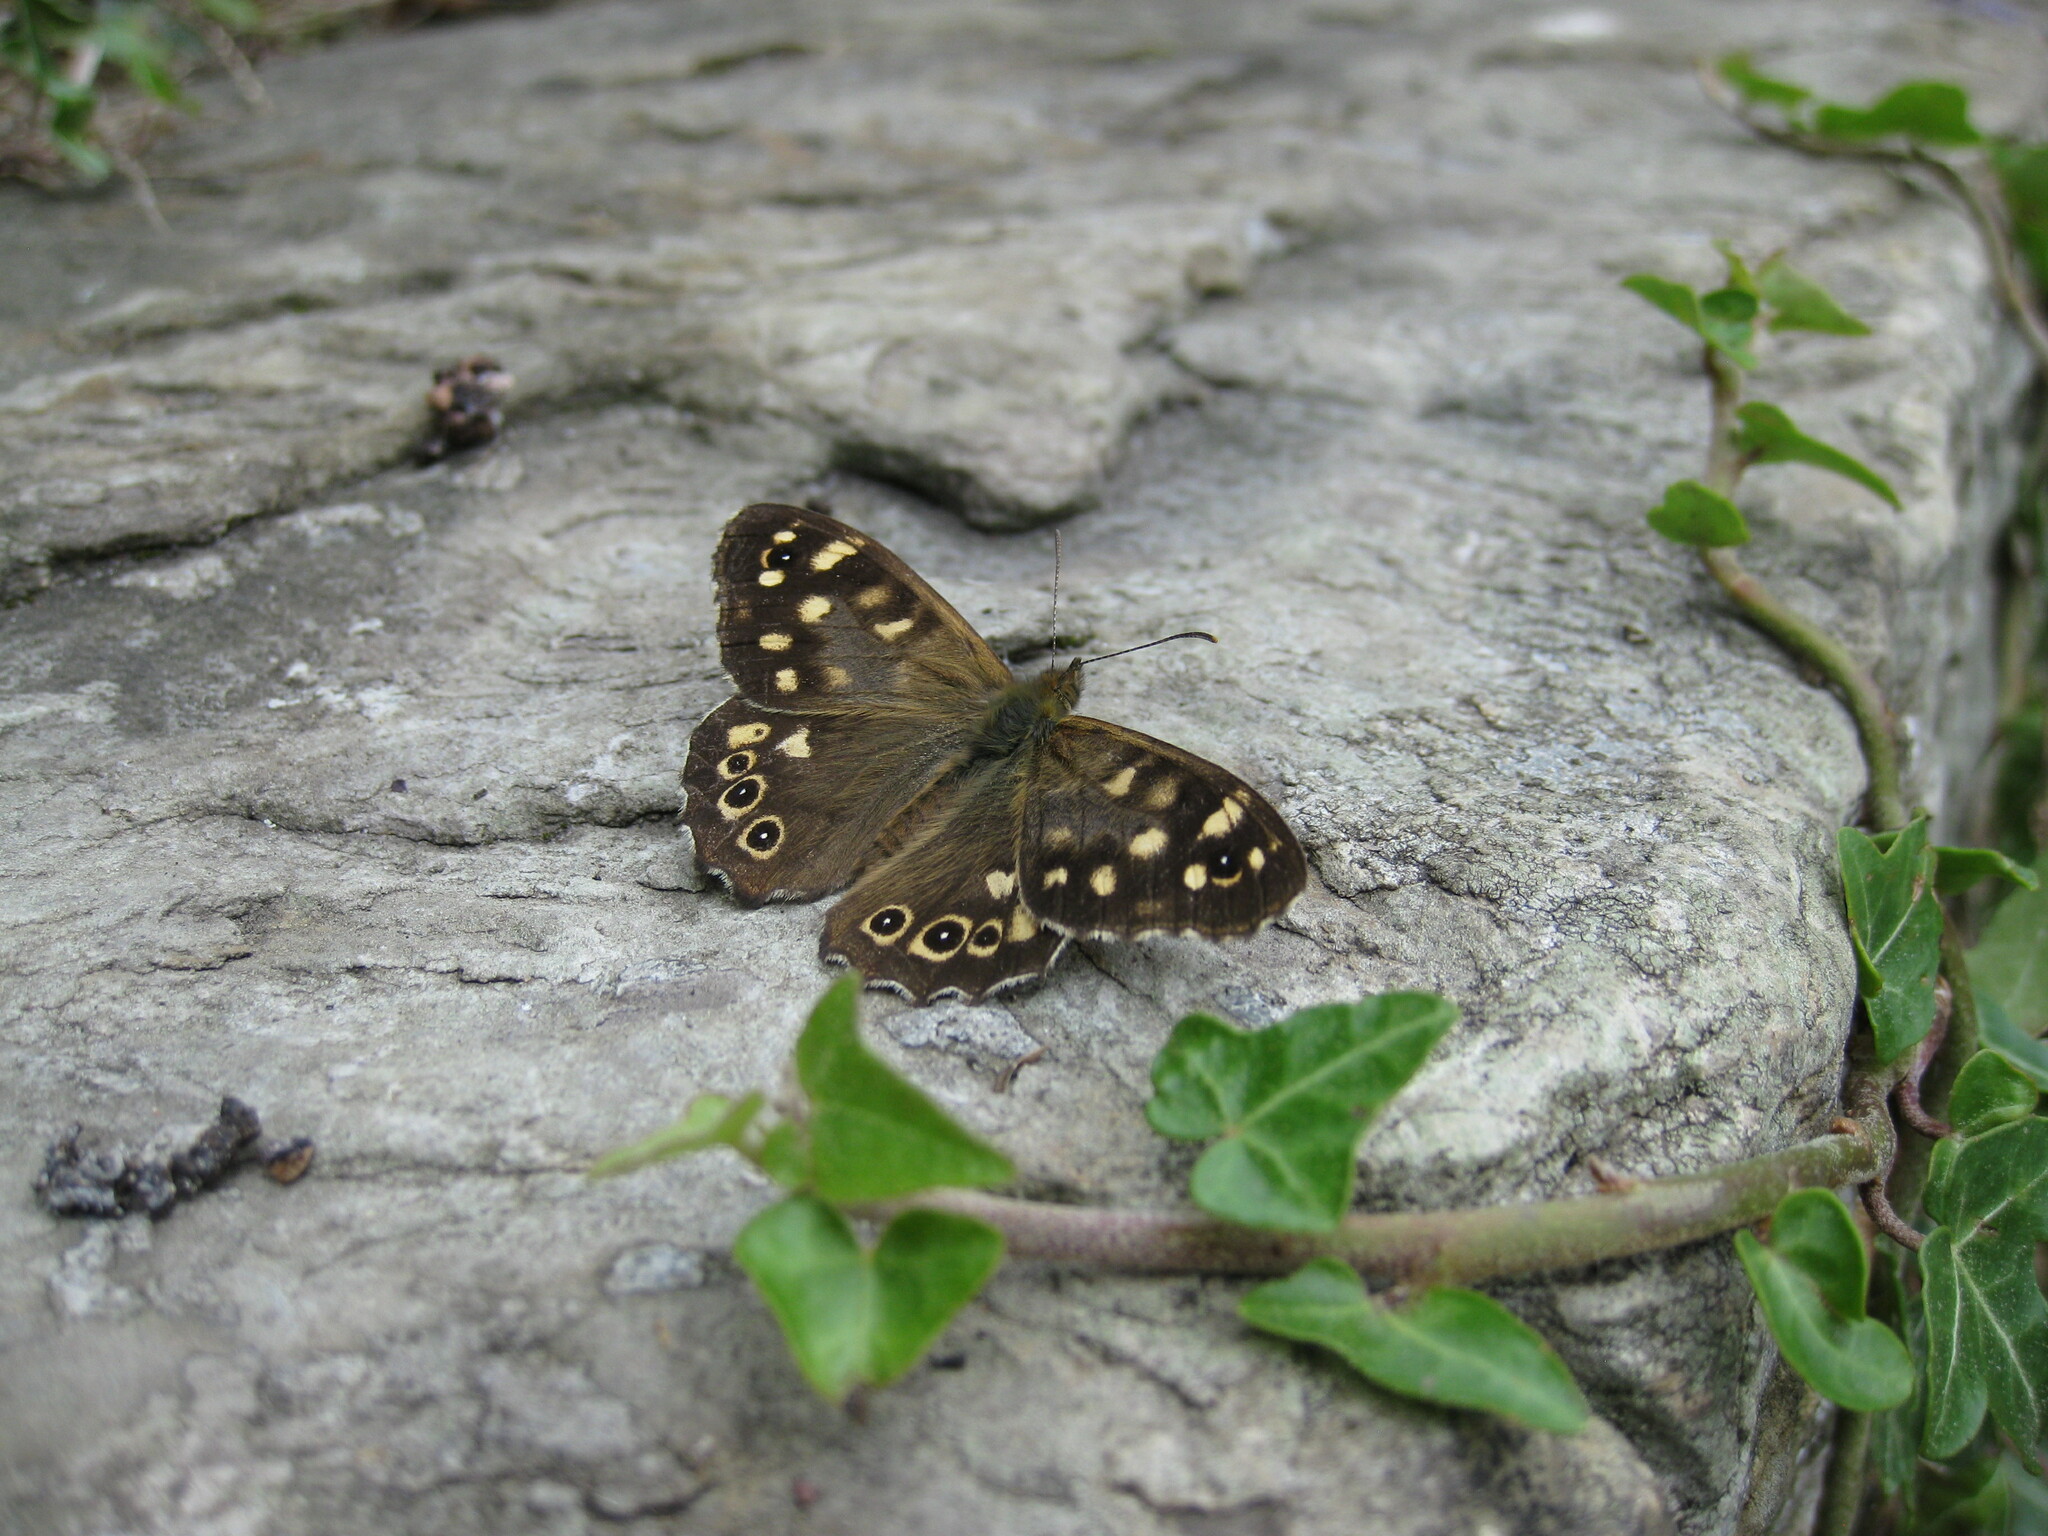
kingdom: Animalia
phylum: Arthropoda
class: Insecta
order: Lepidoptera
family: Nymphalidae
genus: Pararge
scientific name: Pararge aegeria
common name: Speckled wood
